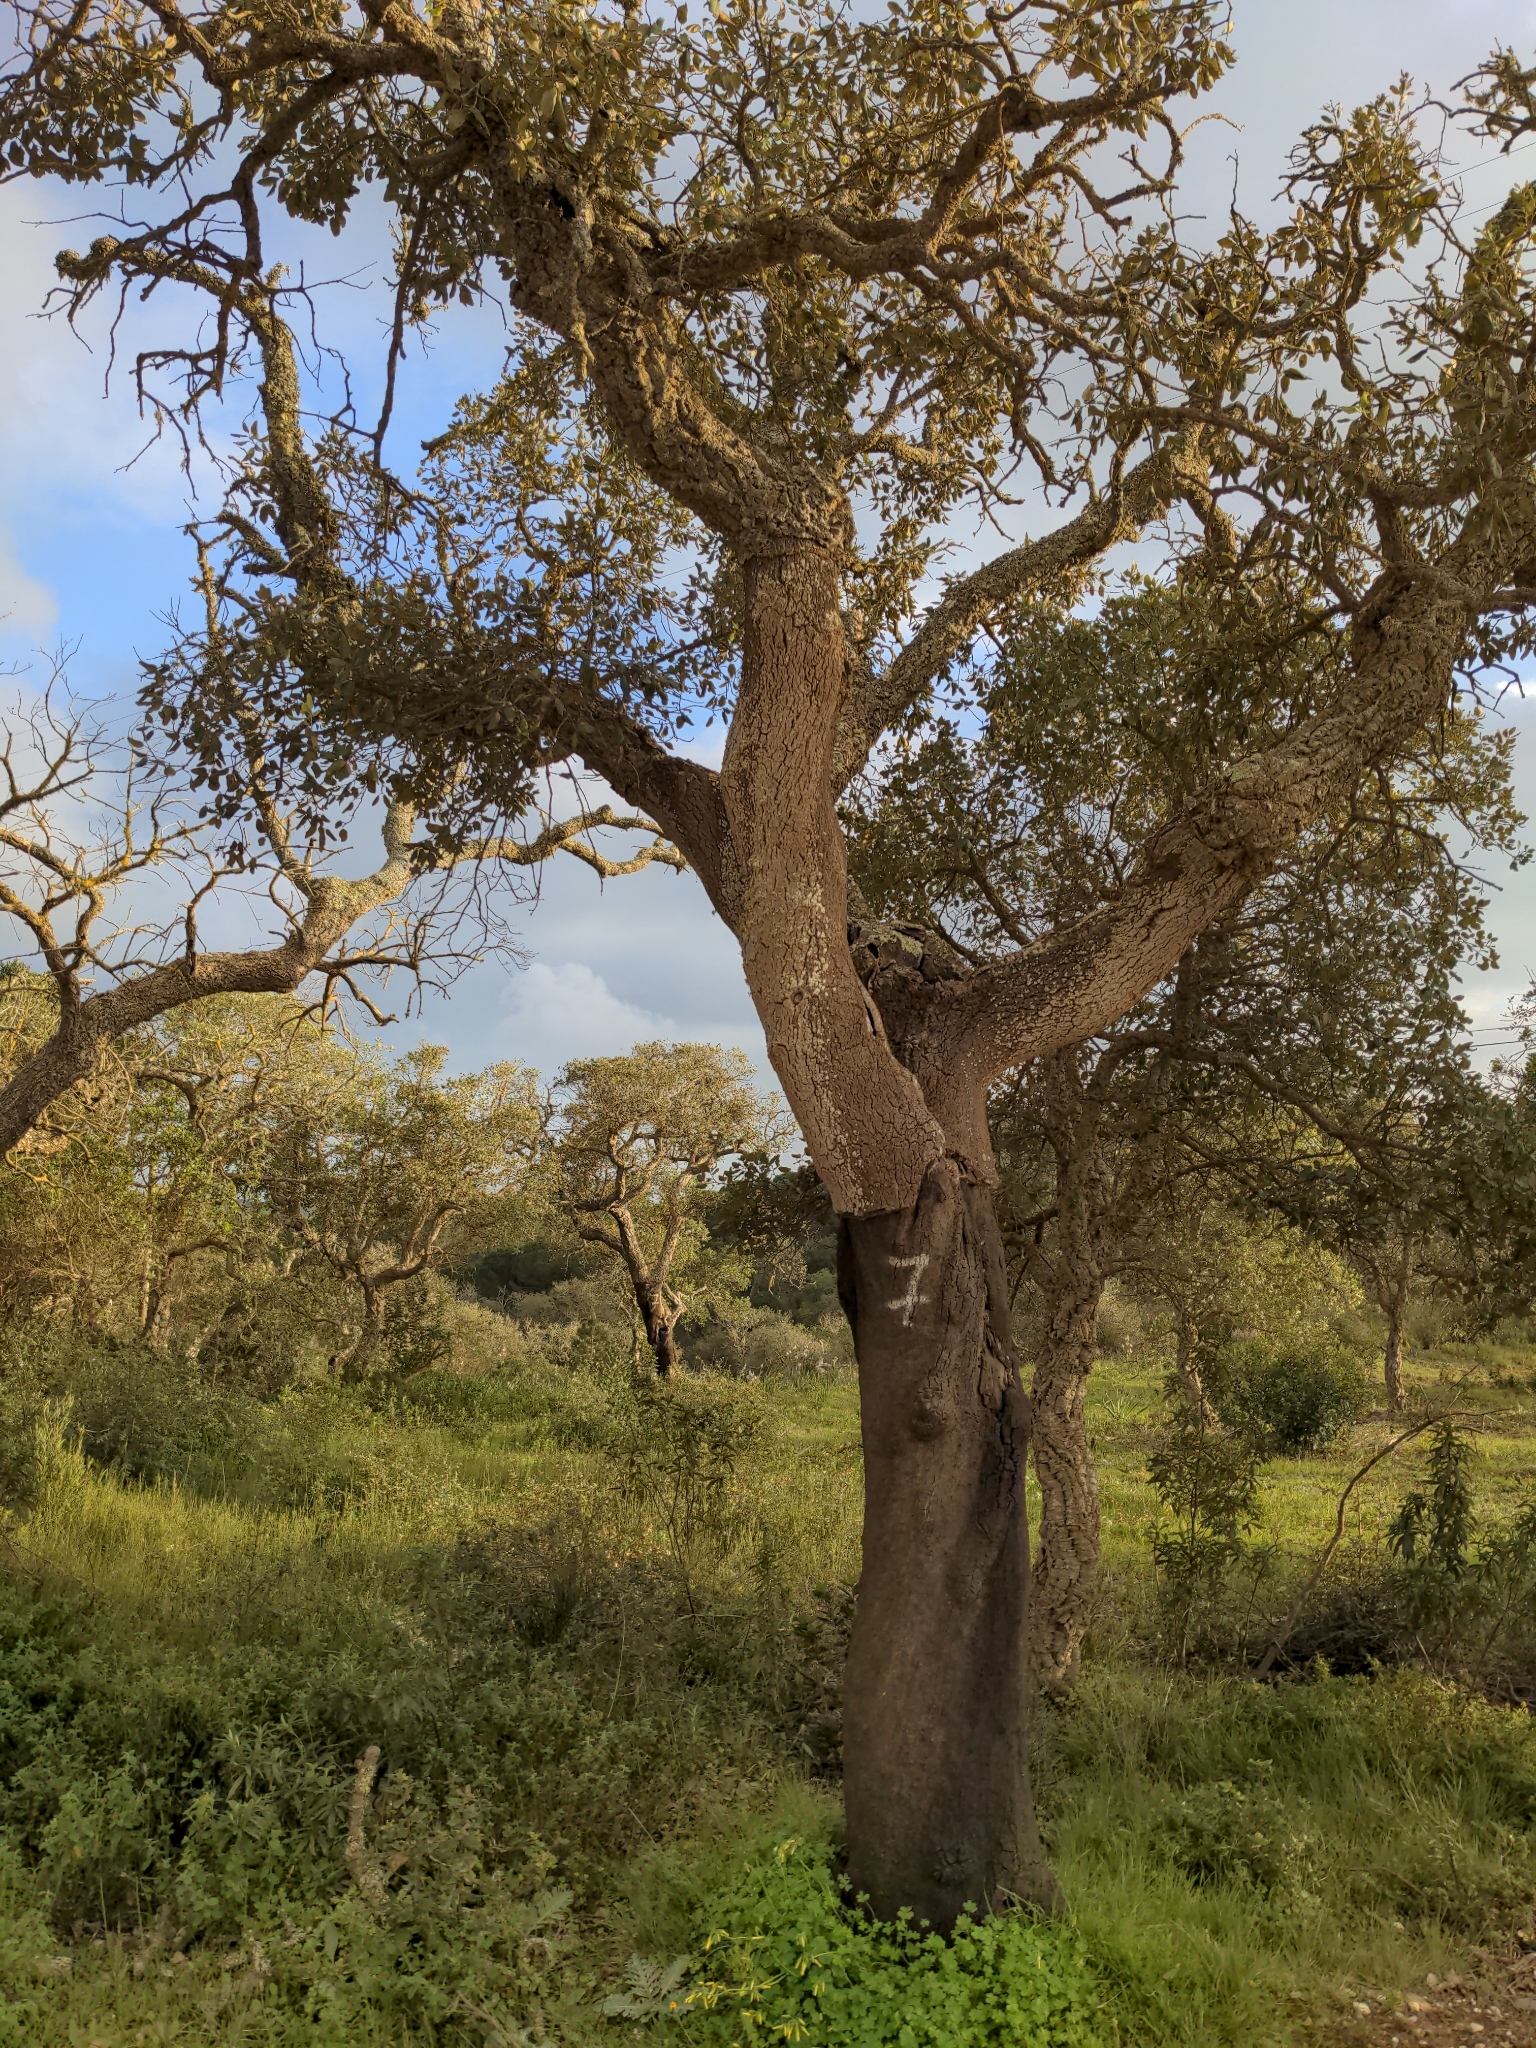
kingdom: Plantae
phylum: Tracheophyta
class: Magnoliopsida
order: Fagales
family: Fagaceae
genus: Quercus
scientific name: Quercus suber
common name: Cork oak
